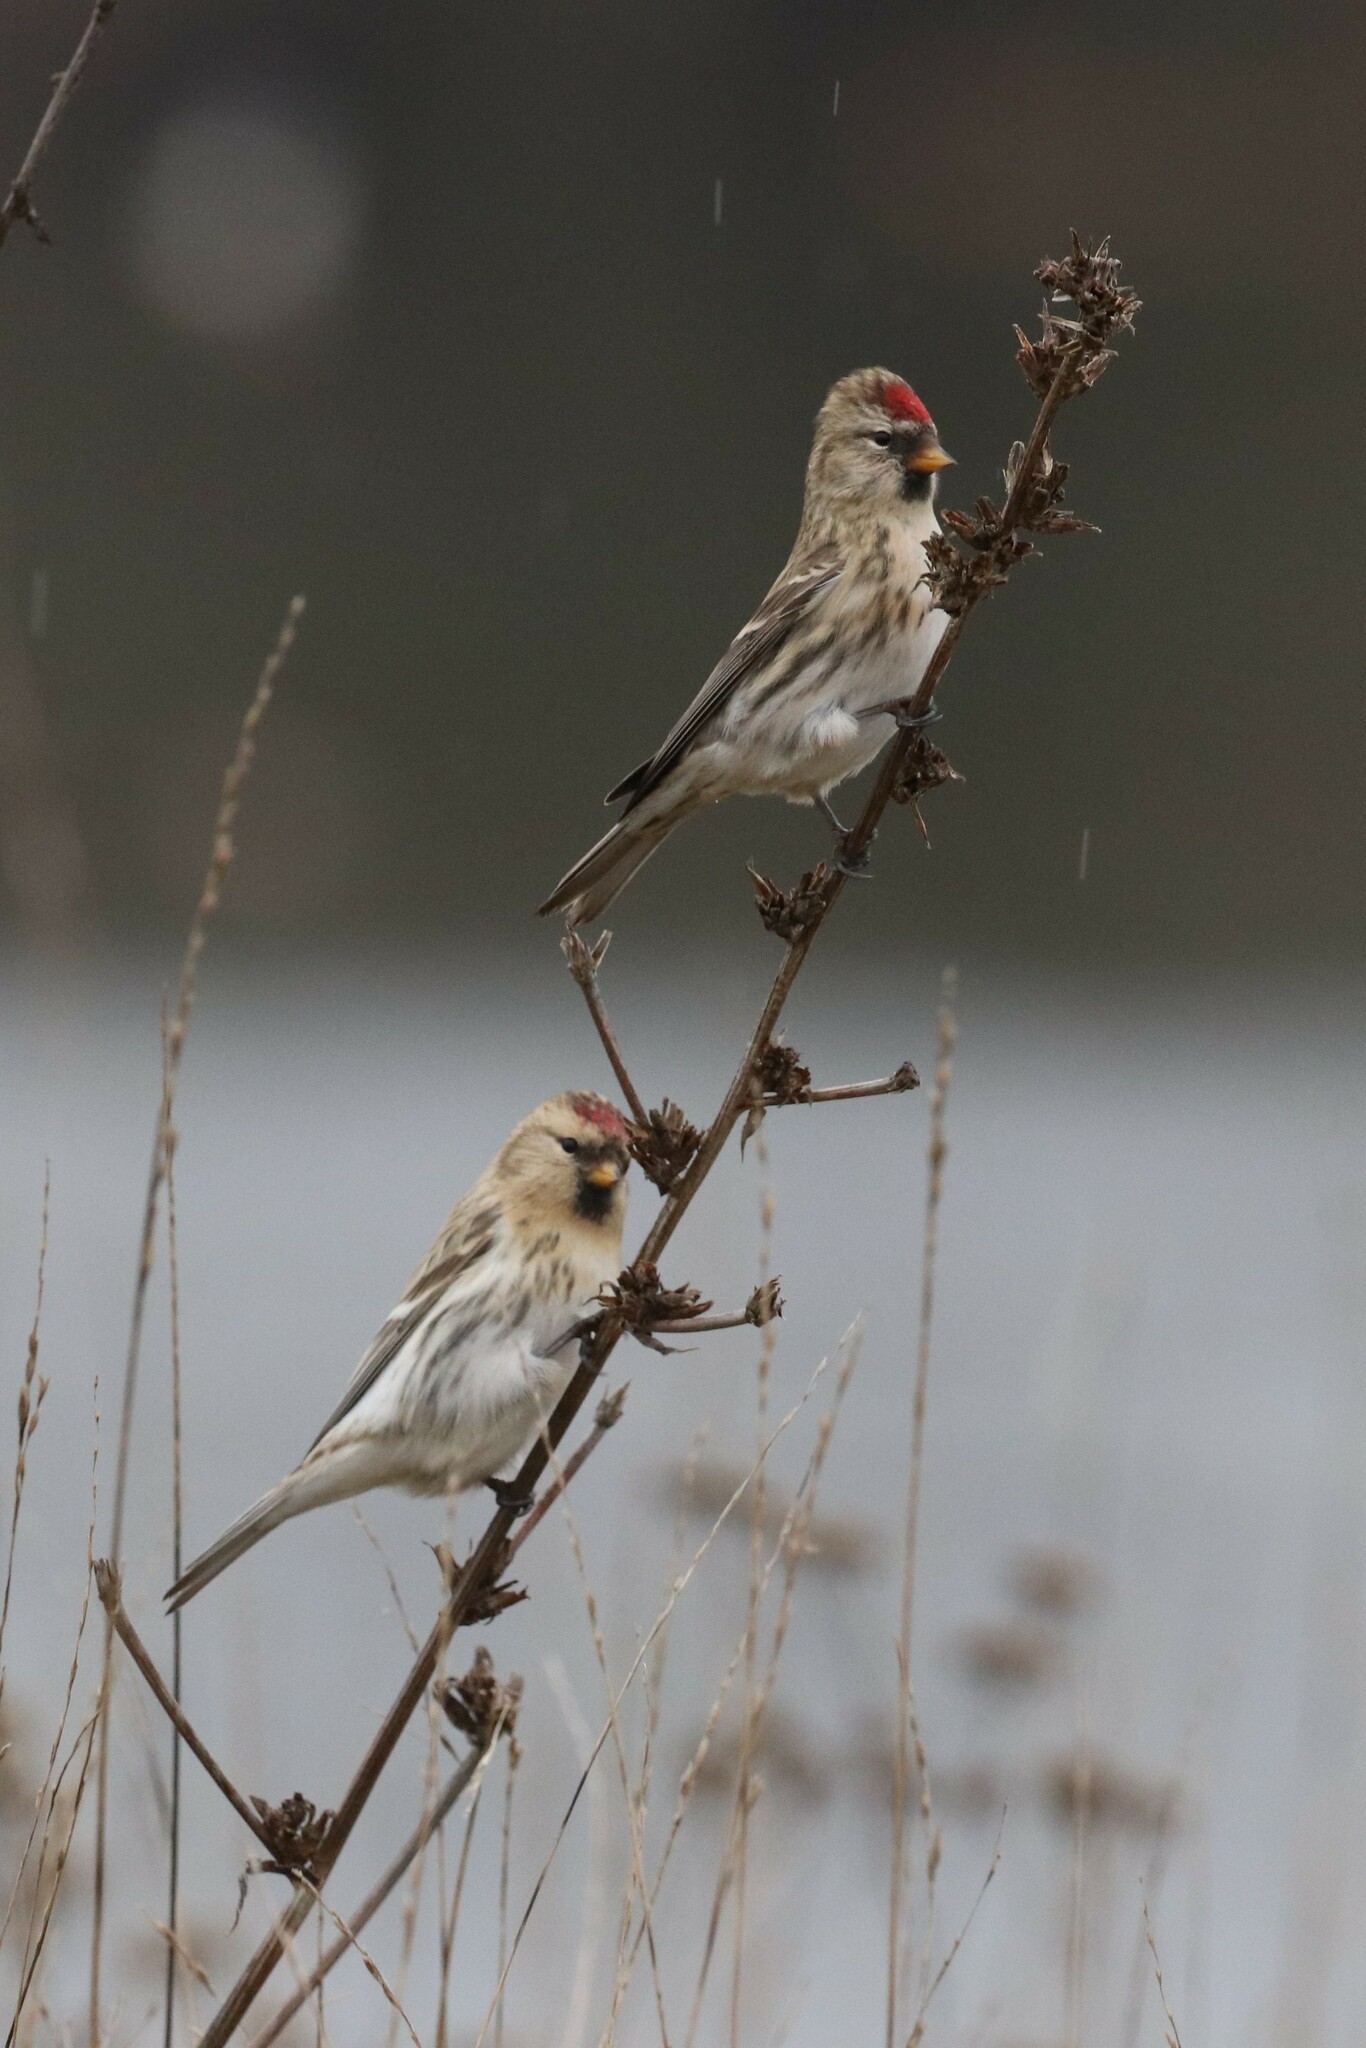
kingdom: Animalia
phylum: Chordata
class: Aves
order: Passeriformes
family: Fringillidae
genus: Acanthis
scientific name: Acanthis flammea
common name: Common redpoll
